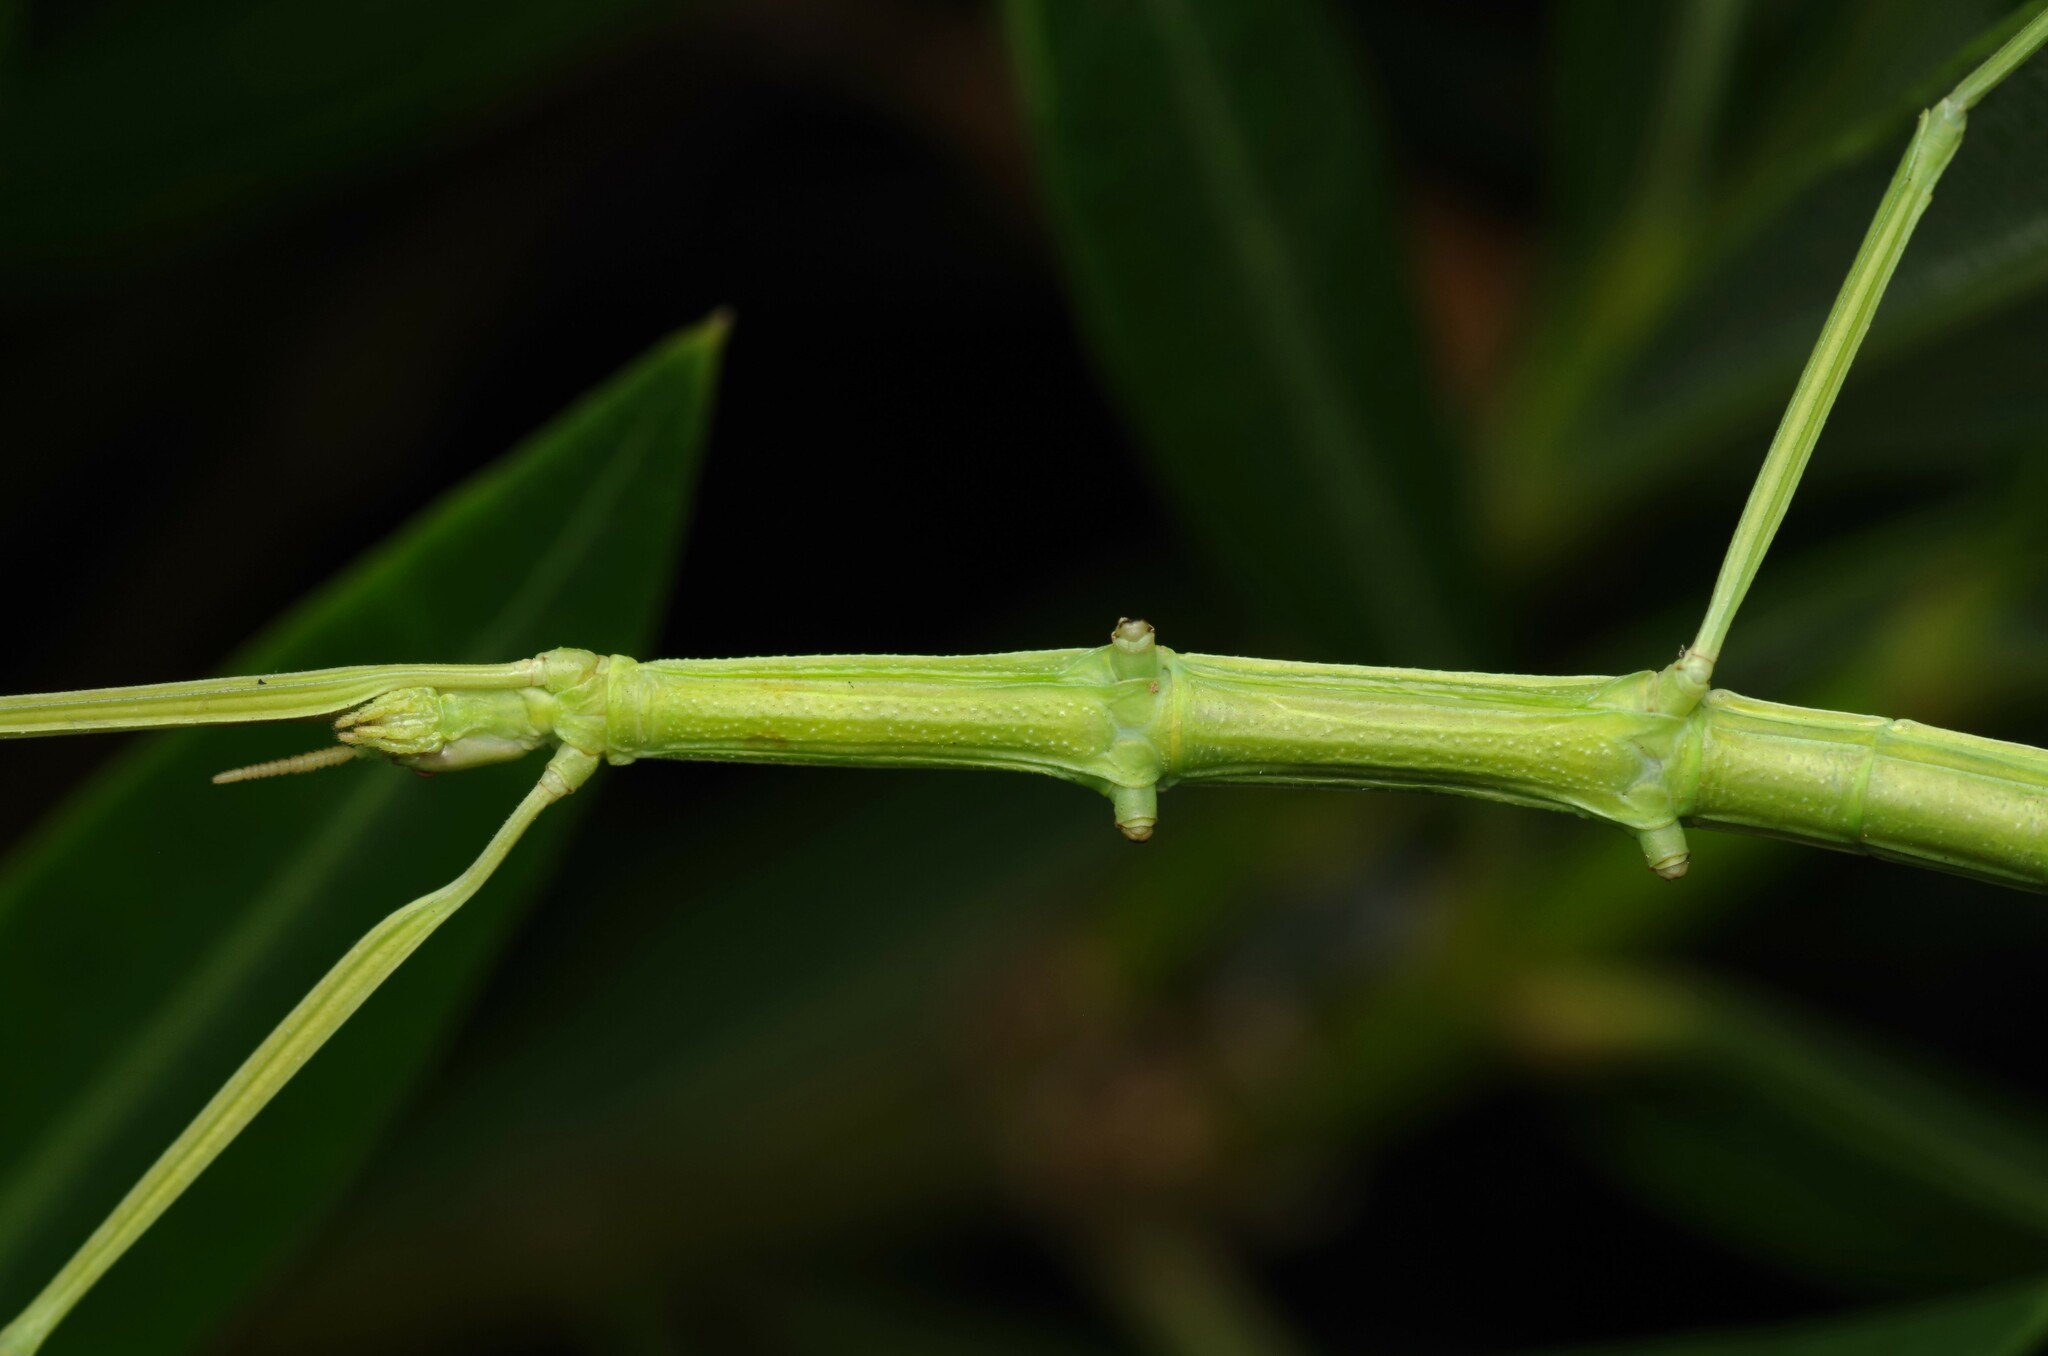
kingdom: Animalia
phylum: Arthropoda
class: Insecta
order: Phasmida
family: Bacillidae
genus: Clonopsis
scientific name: Clonopsis gallica
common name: French stick insect
